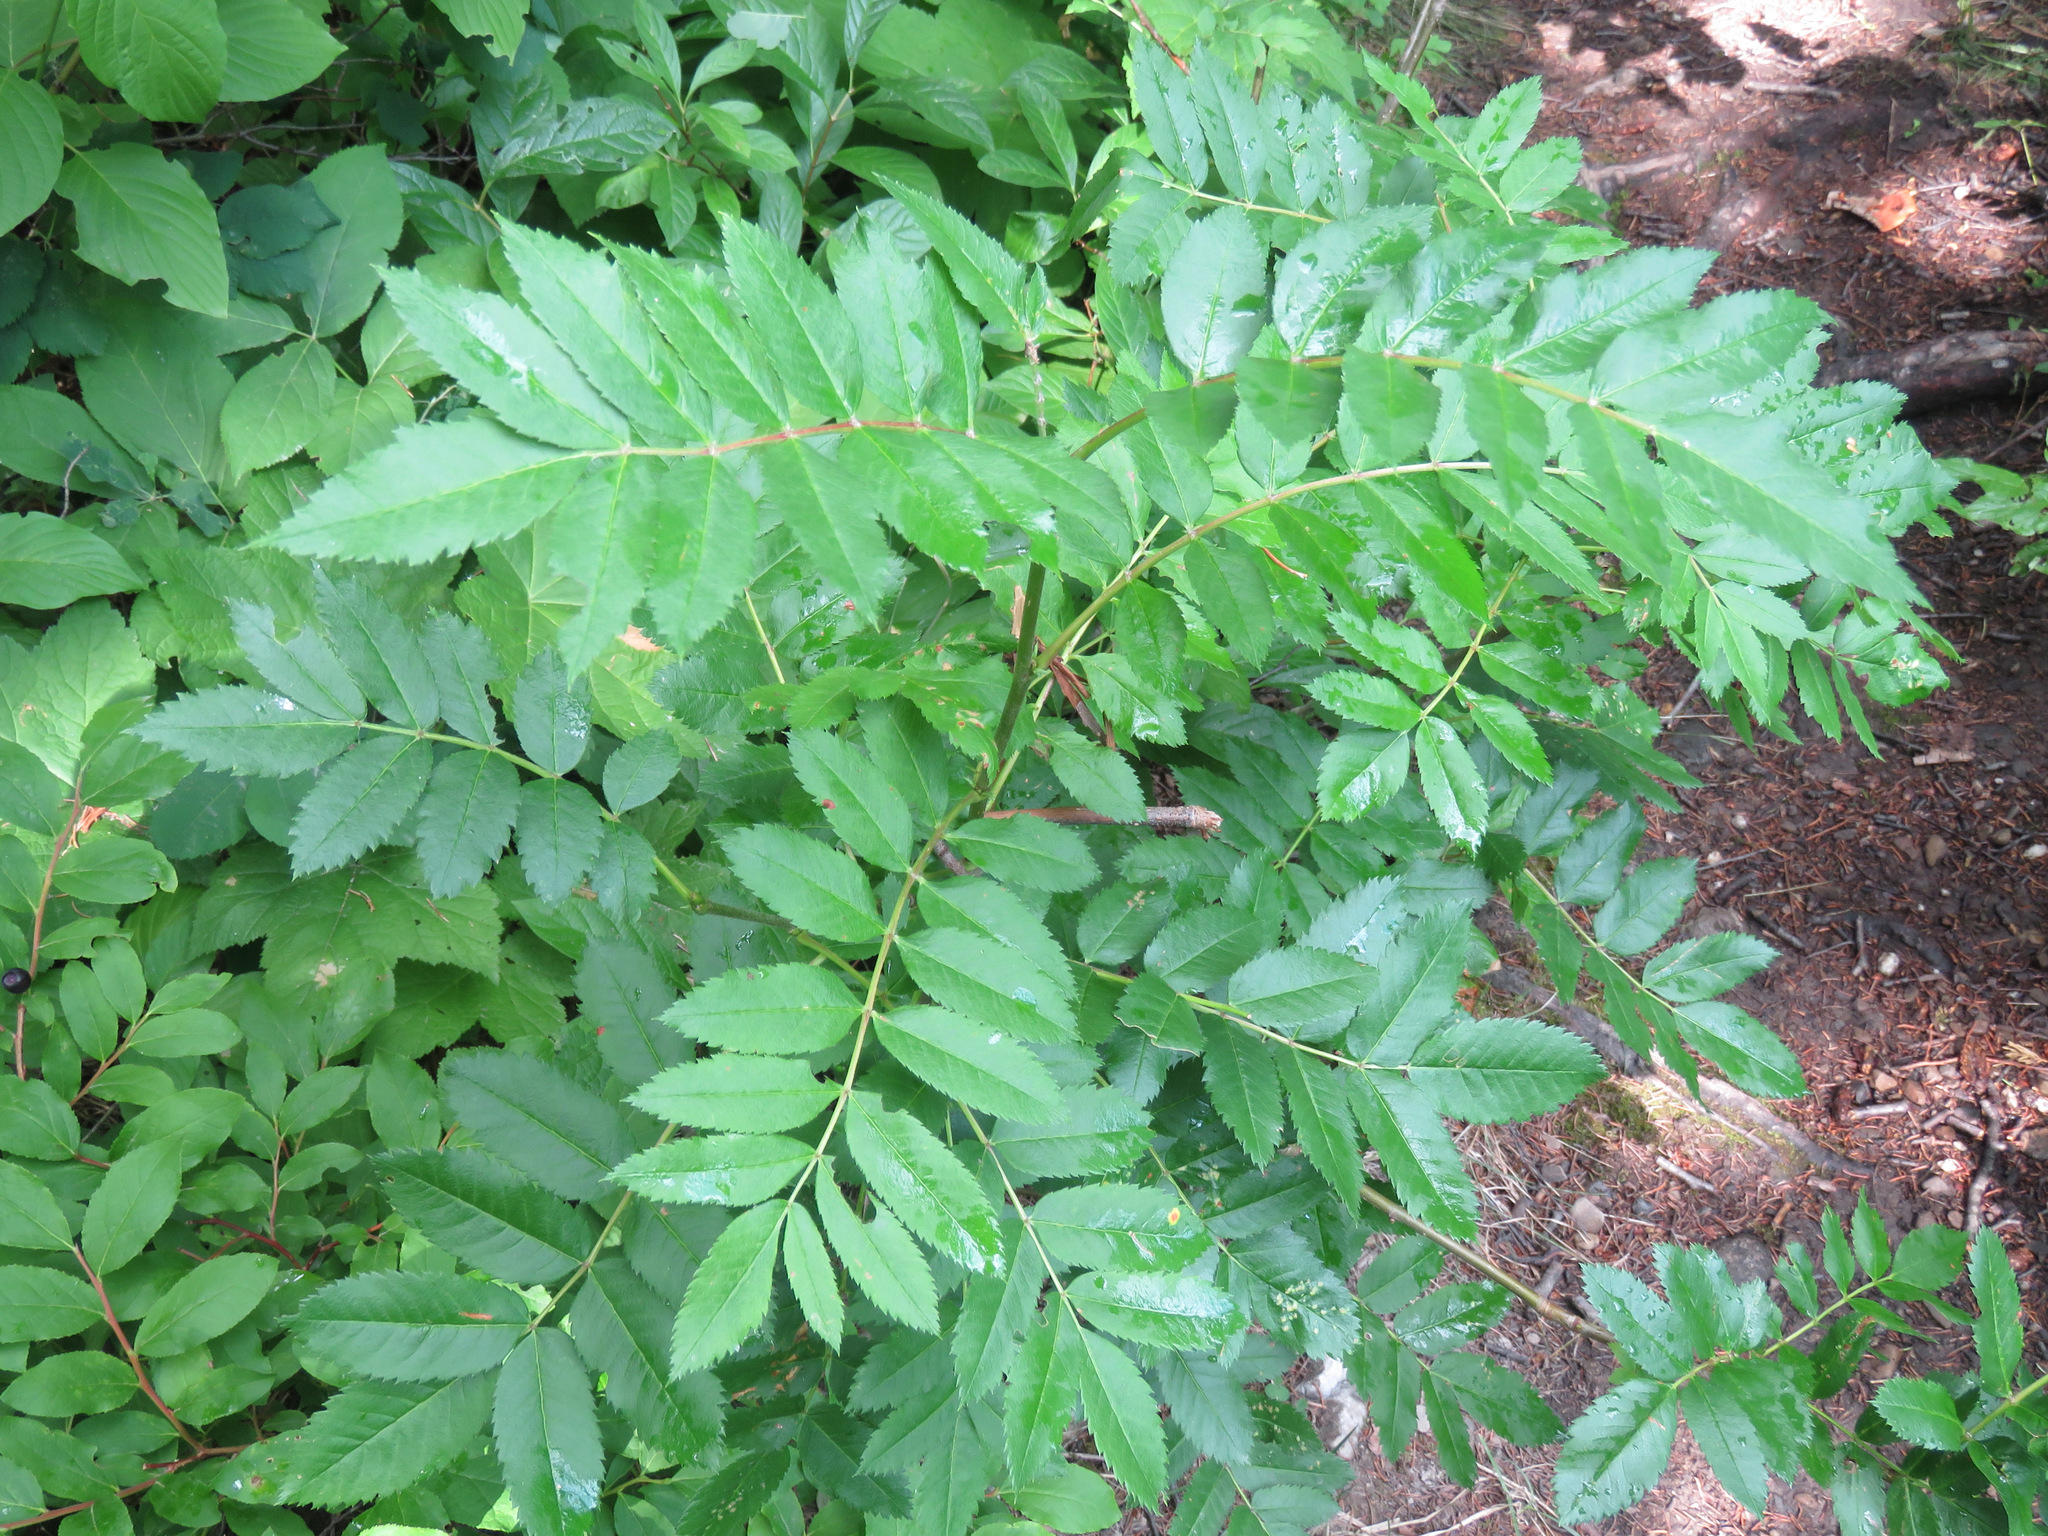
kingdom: Plantae
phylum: Tracheophyta
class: Magnoliopsida
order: Rosales
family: Rosaceae
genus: Sorbus
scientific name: Sorbus scopulina
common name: Greene's mountain-ash
